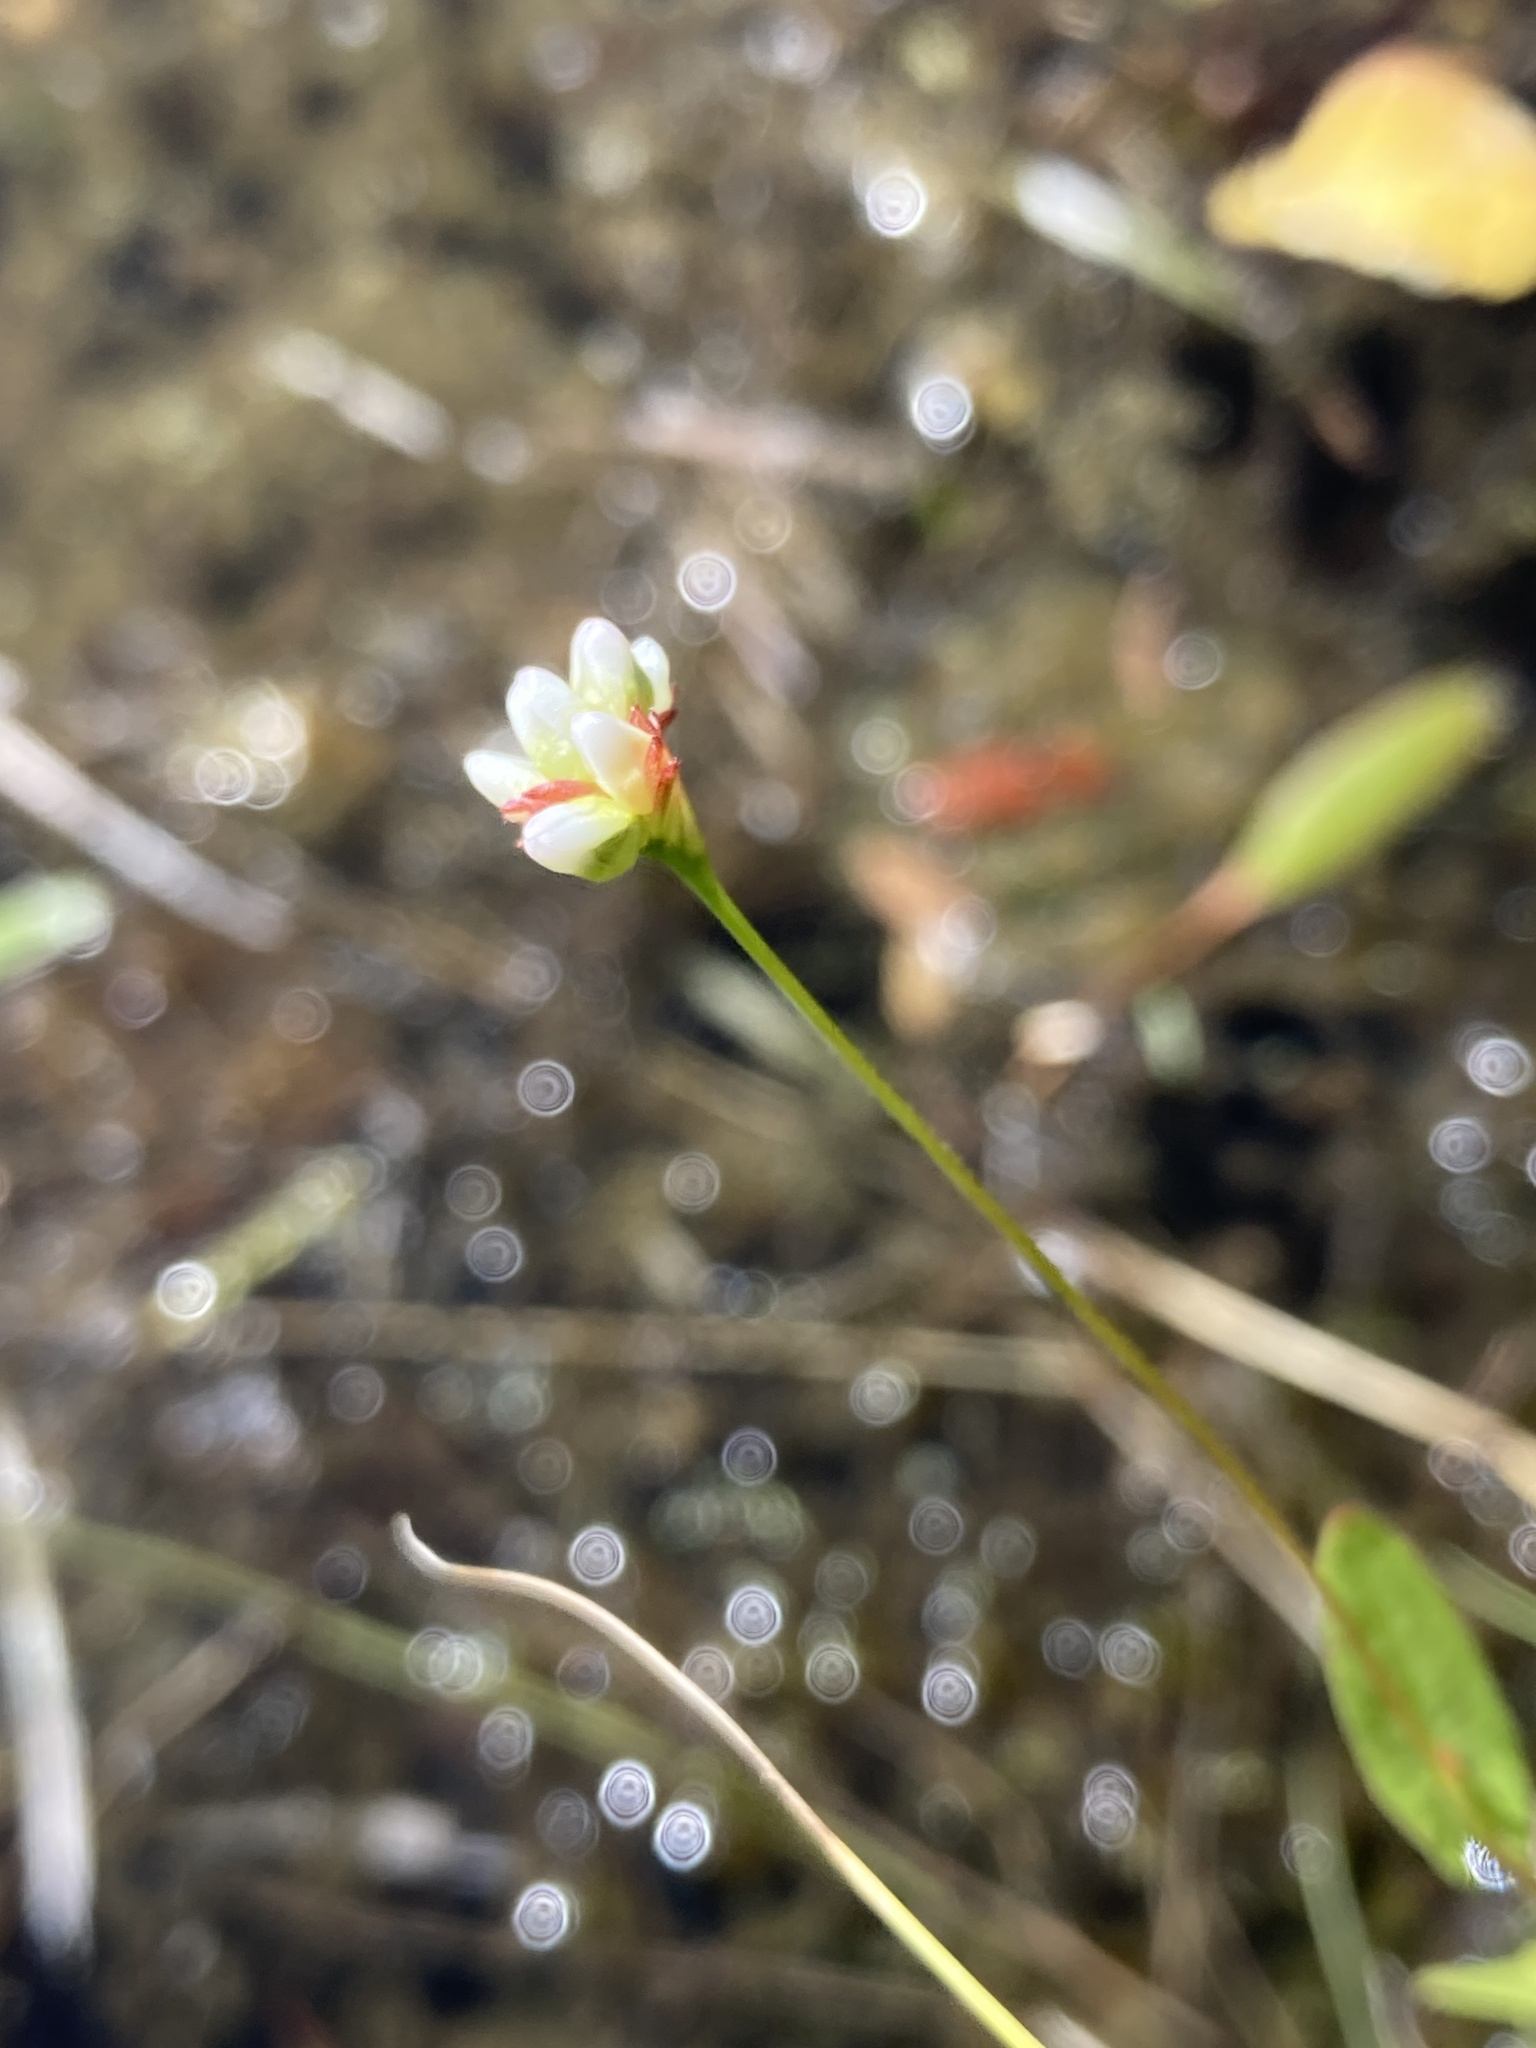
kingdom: Plantae
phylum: Tracheophyta
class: Magnoliopsida
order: Caryophyllales
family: Polygonaceae
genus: Persicaria
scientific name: Persicaria sagittata
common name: American tearthumb
